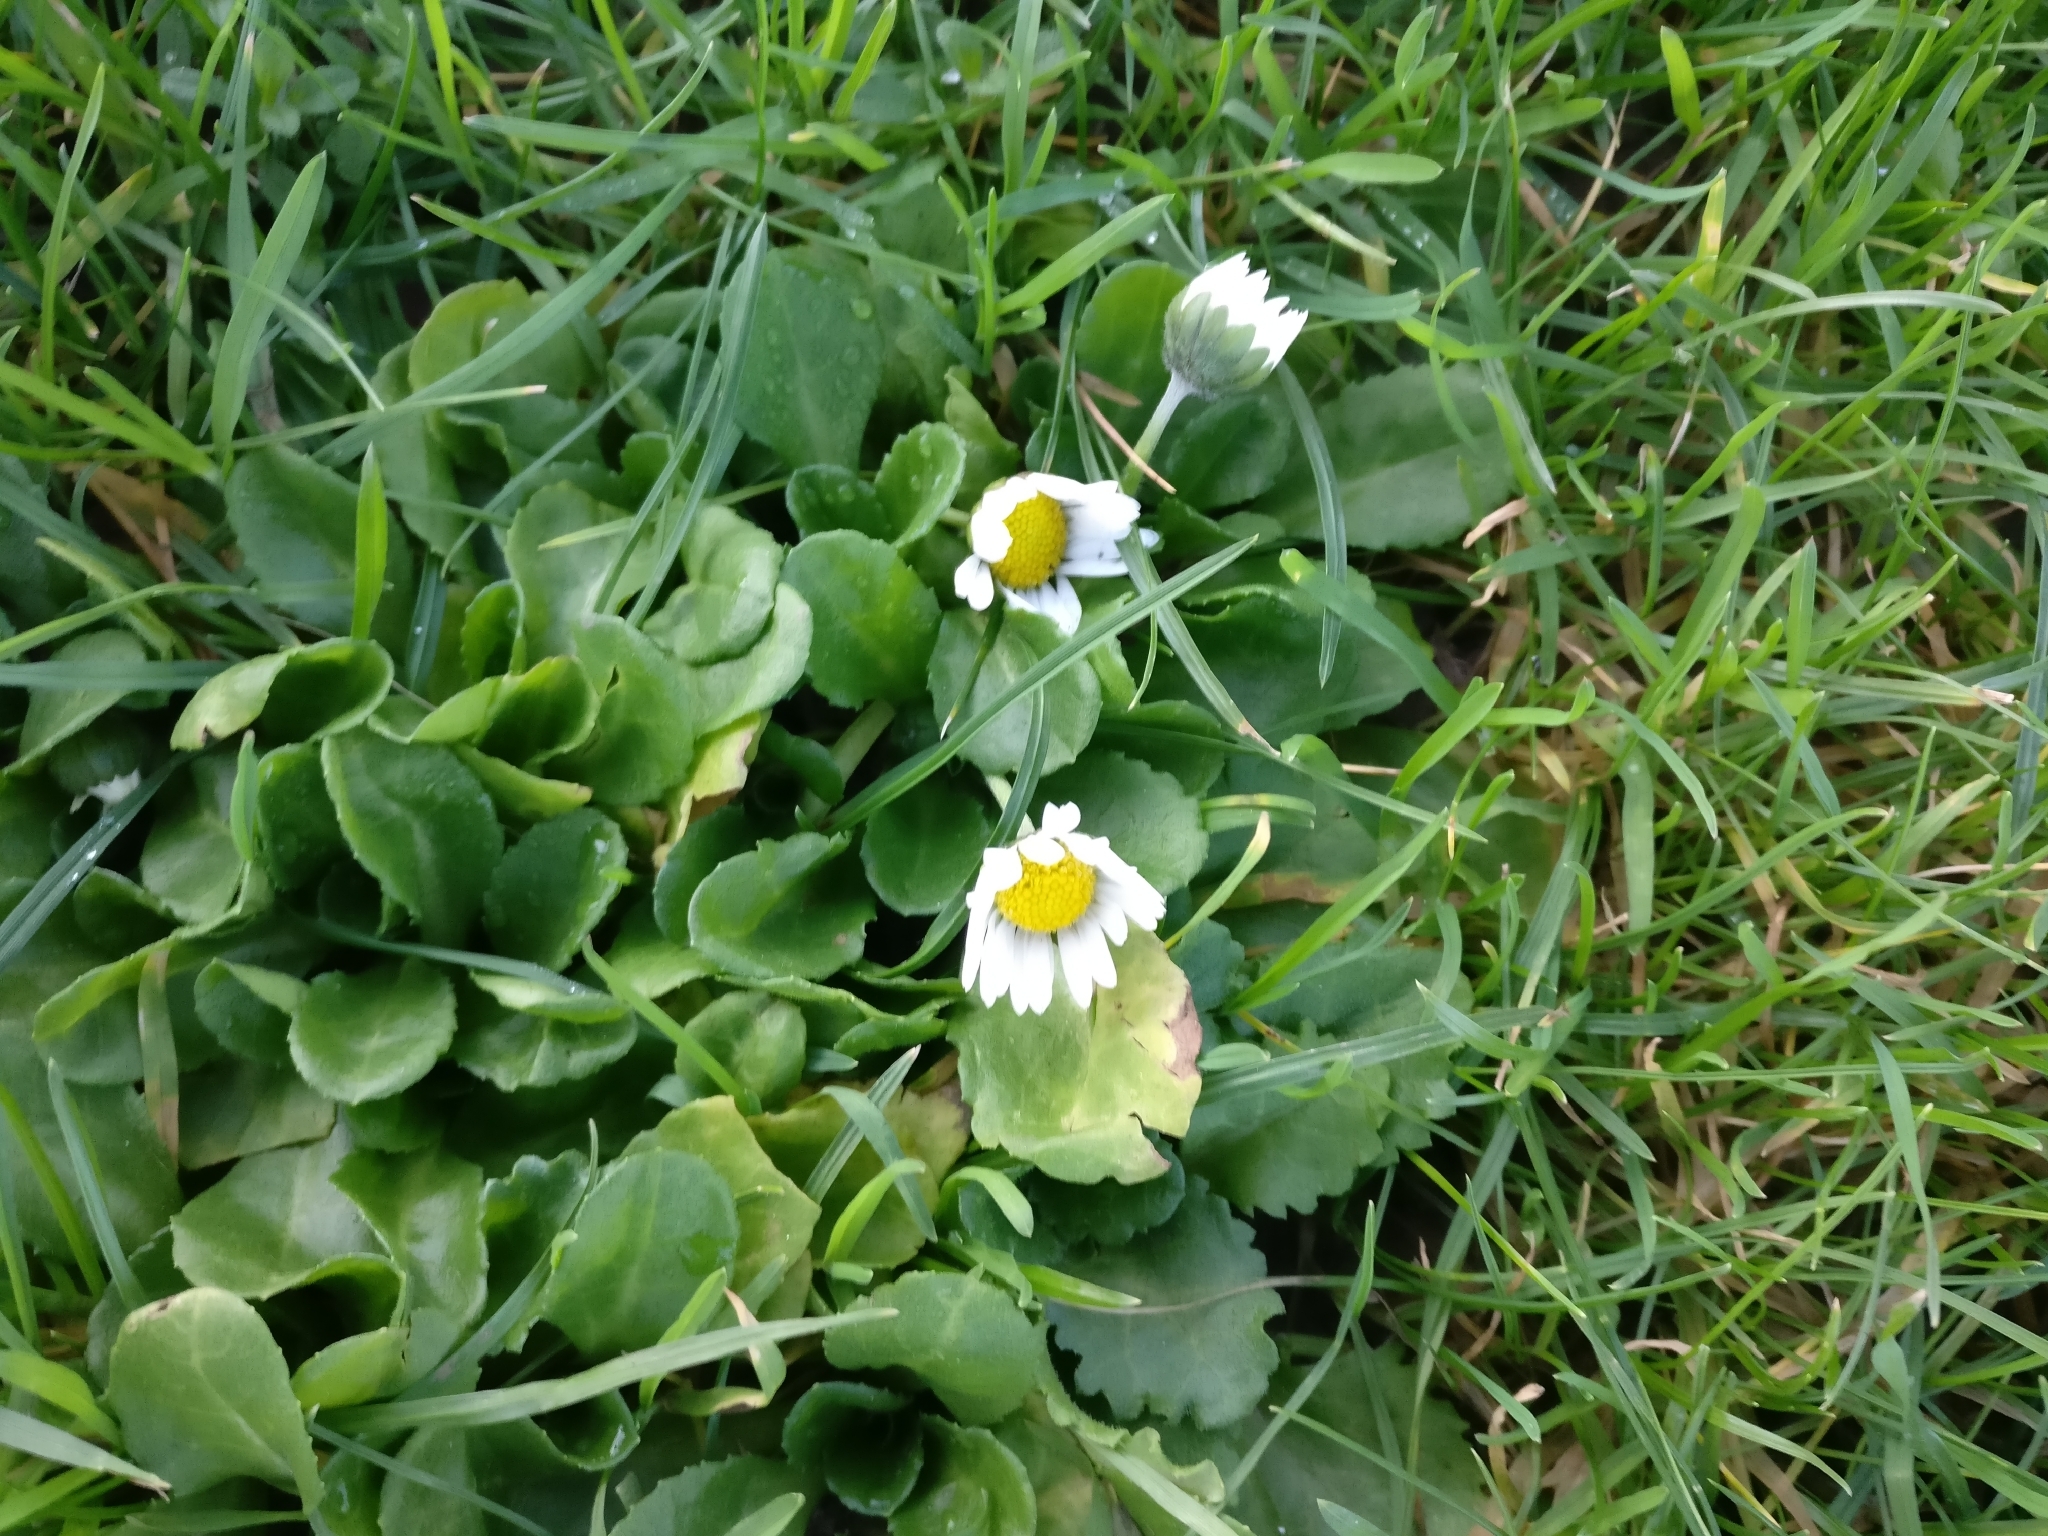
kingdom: Plantae
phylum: Tracheophyta
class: Magnoliopsida
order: Asterales
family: Asteraceae
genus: Bellis
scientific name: Bellis perennis
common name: Lawndaisy
